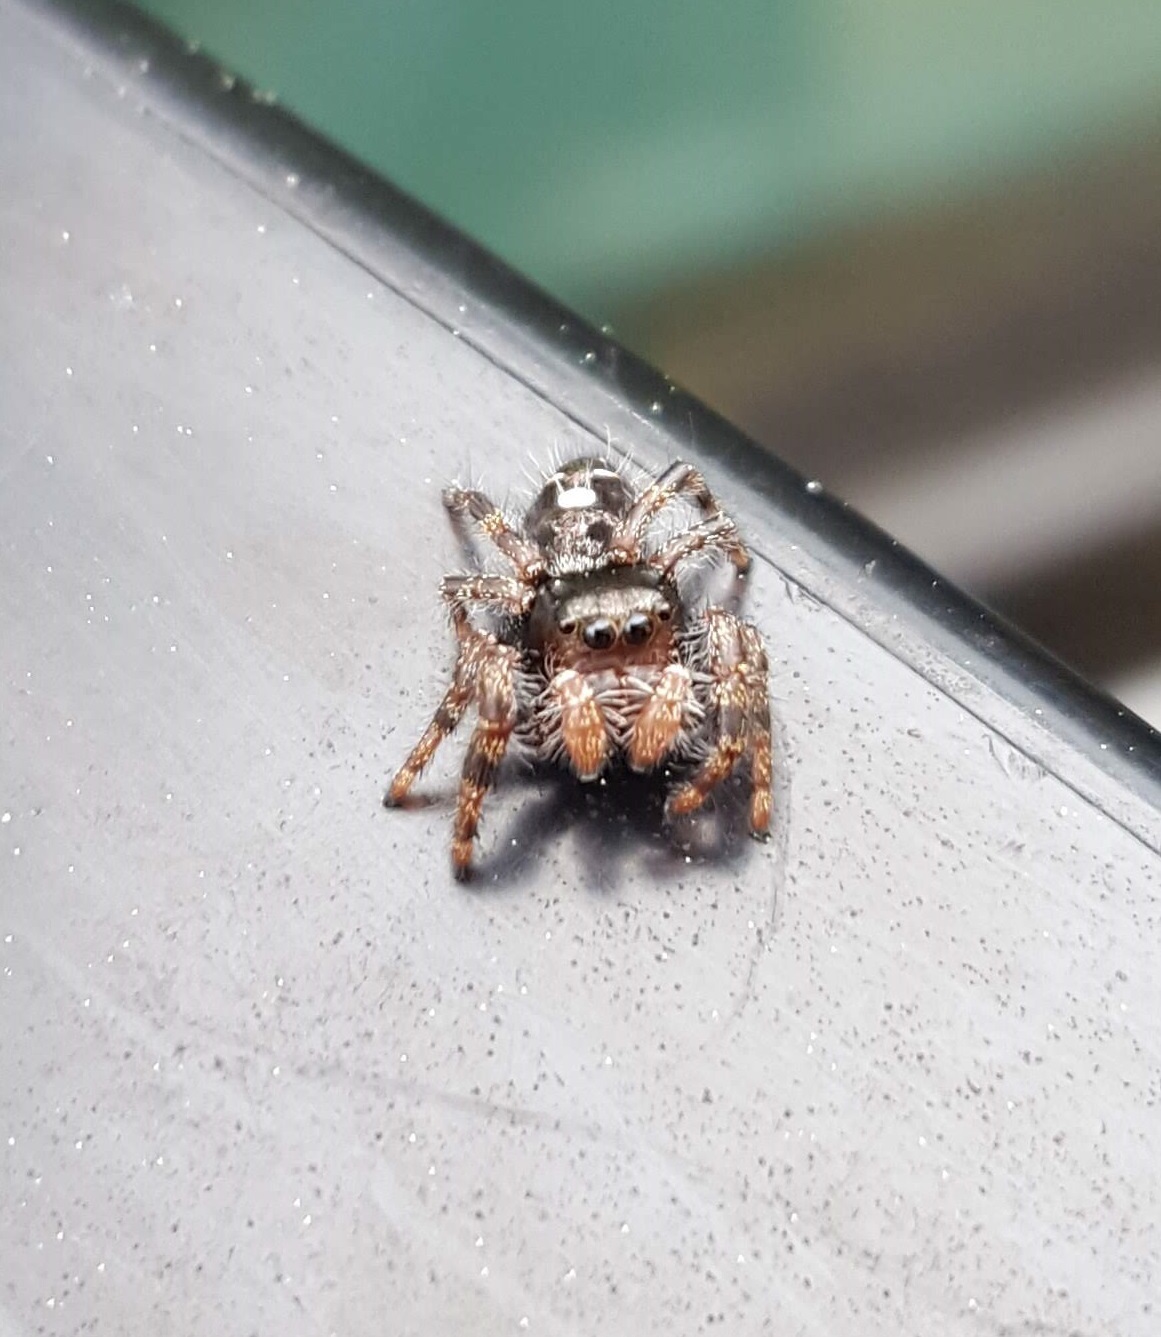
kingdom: Animalia
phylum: Arthropoda
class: Arachnida
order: Araneae
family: Salticidae
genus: Phidippus
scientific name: Phidippus audax
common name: Bold jumper
